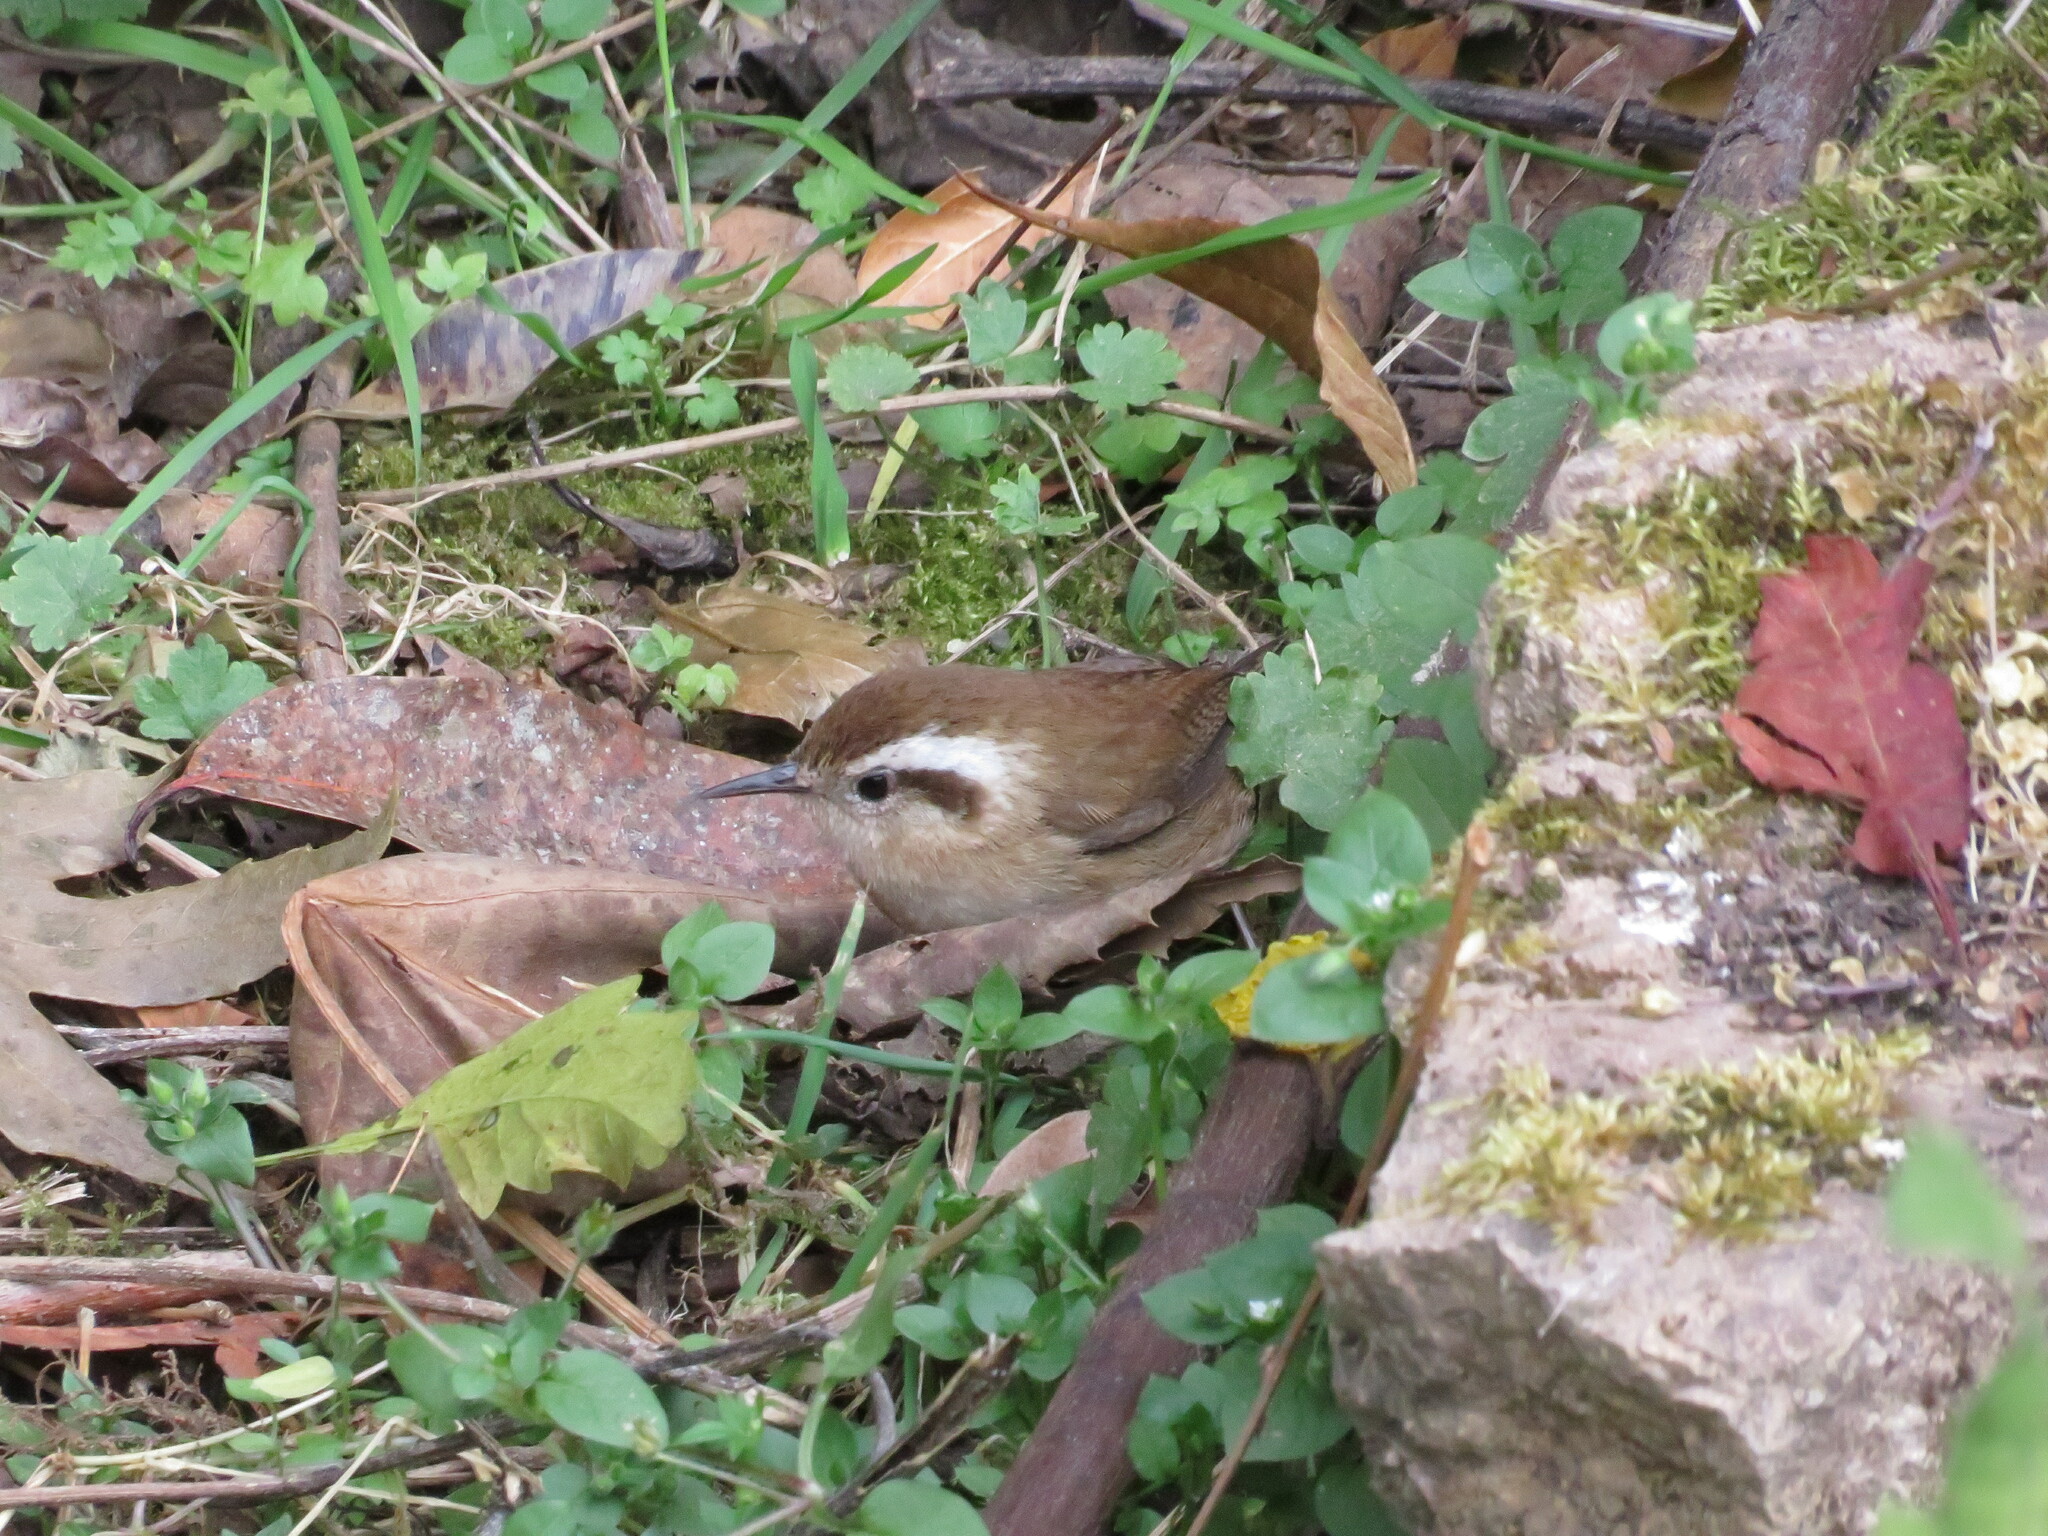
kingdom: Animalia
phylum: Chordata
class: Aves
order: Passeriformes
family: Troglodytidae
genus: Troglodytes
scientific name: Troglodytes solstitialis
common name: Mountain wren
